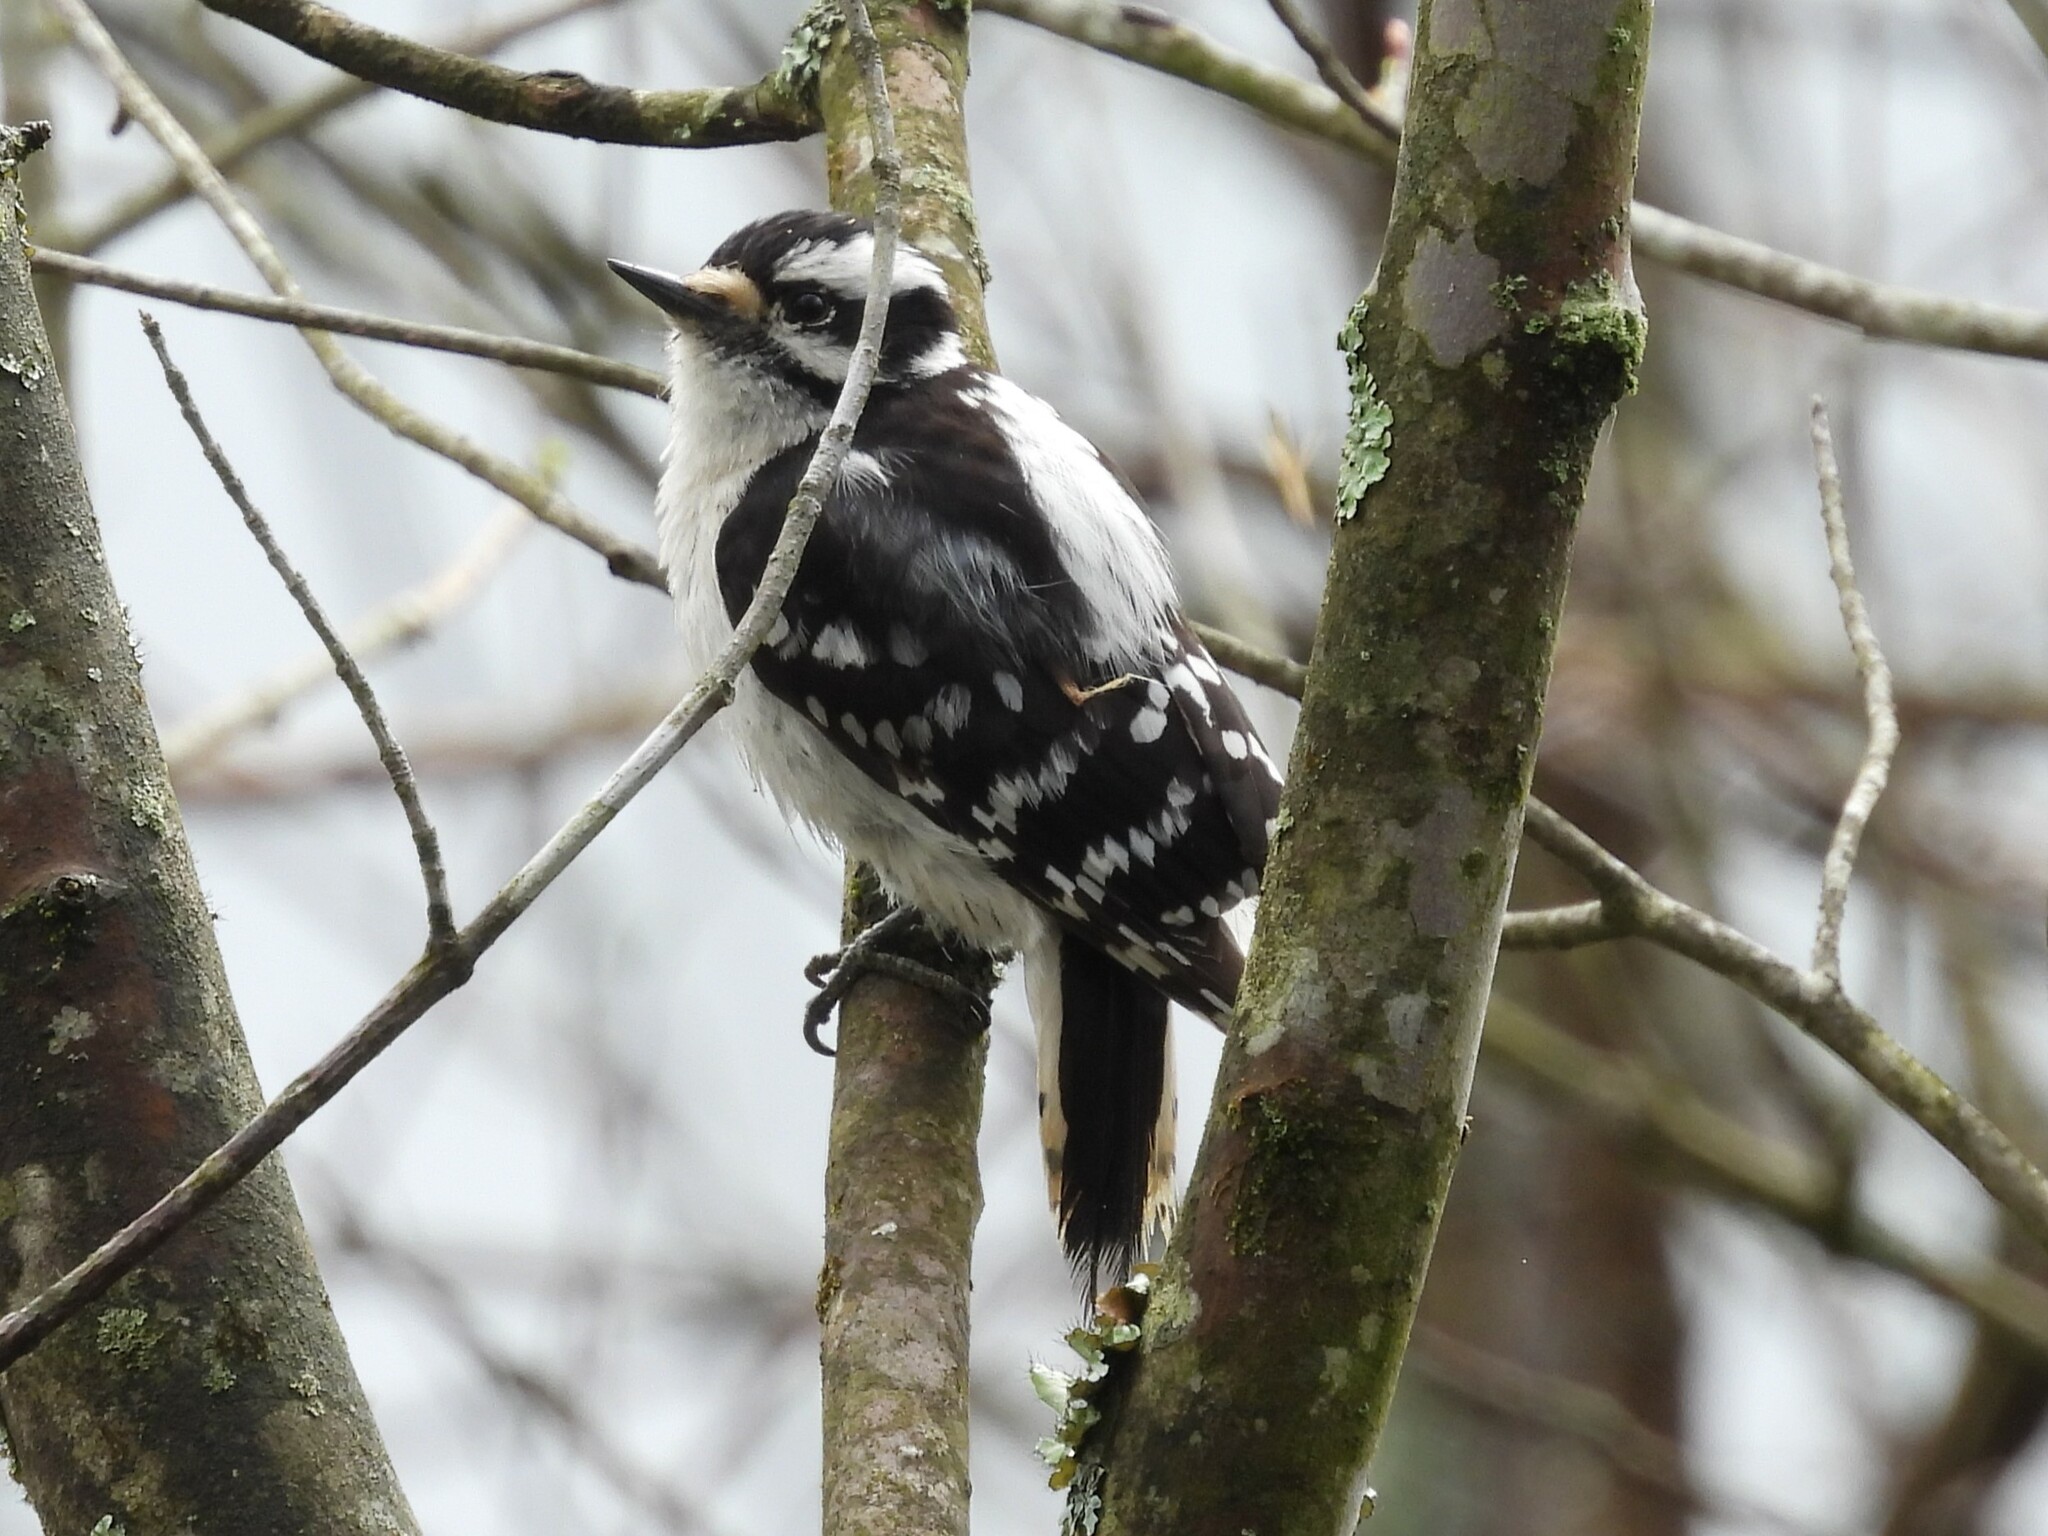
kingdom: Animalia
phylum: Chordata
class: Aves
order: Piciformes
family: Picidae
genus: Dryobates
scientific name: Dryobates pubescens
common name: Downy woodpecker
